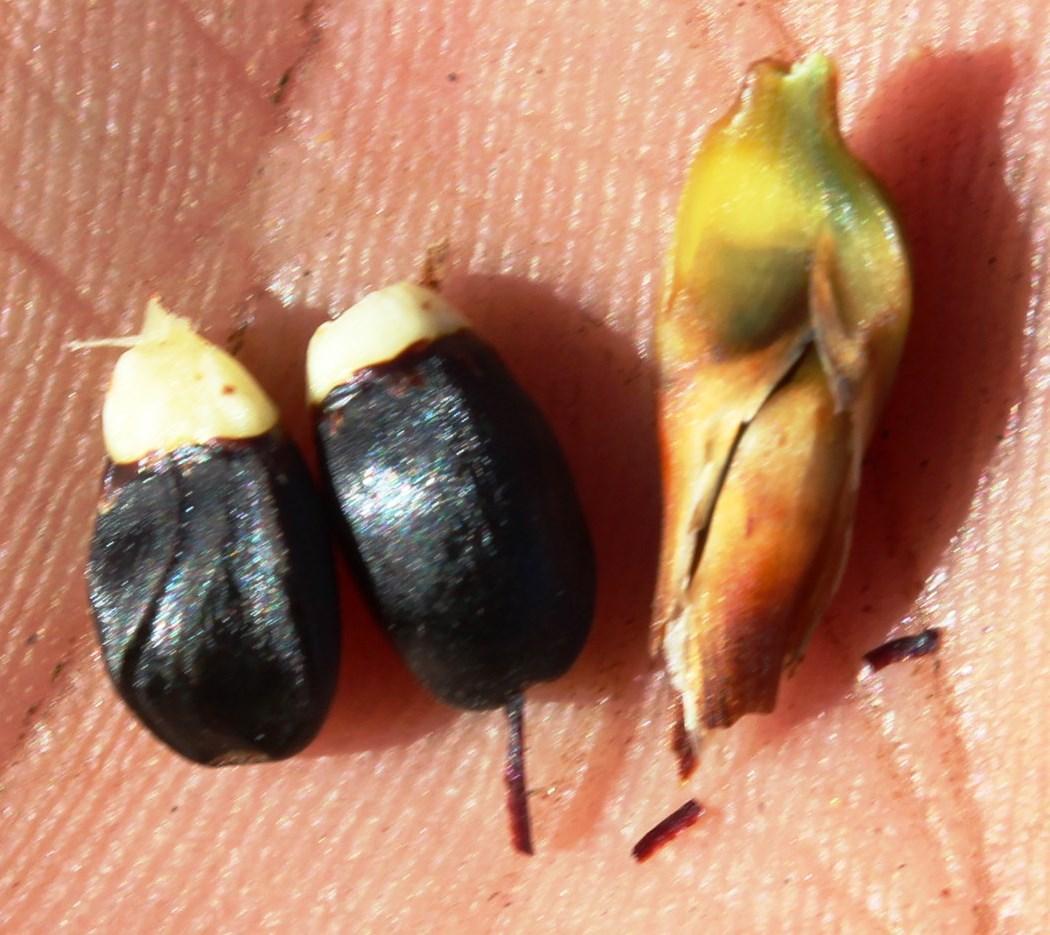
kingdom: Plantae
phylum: Tracheophyta
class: Liliopsida
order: Poales
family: Restionaceae
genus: Cannomois
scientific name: Cannomois parviflora
